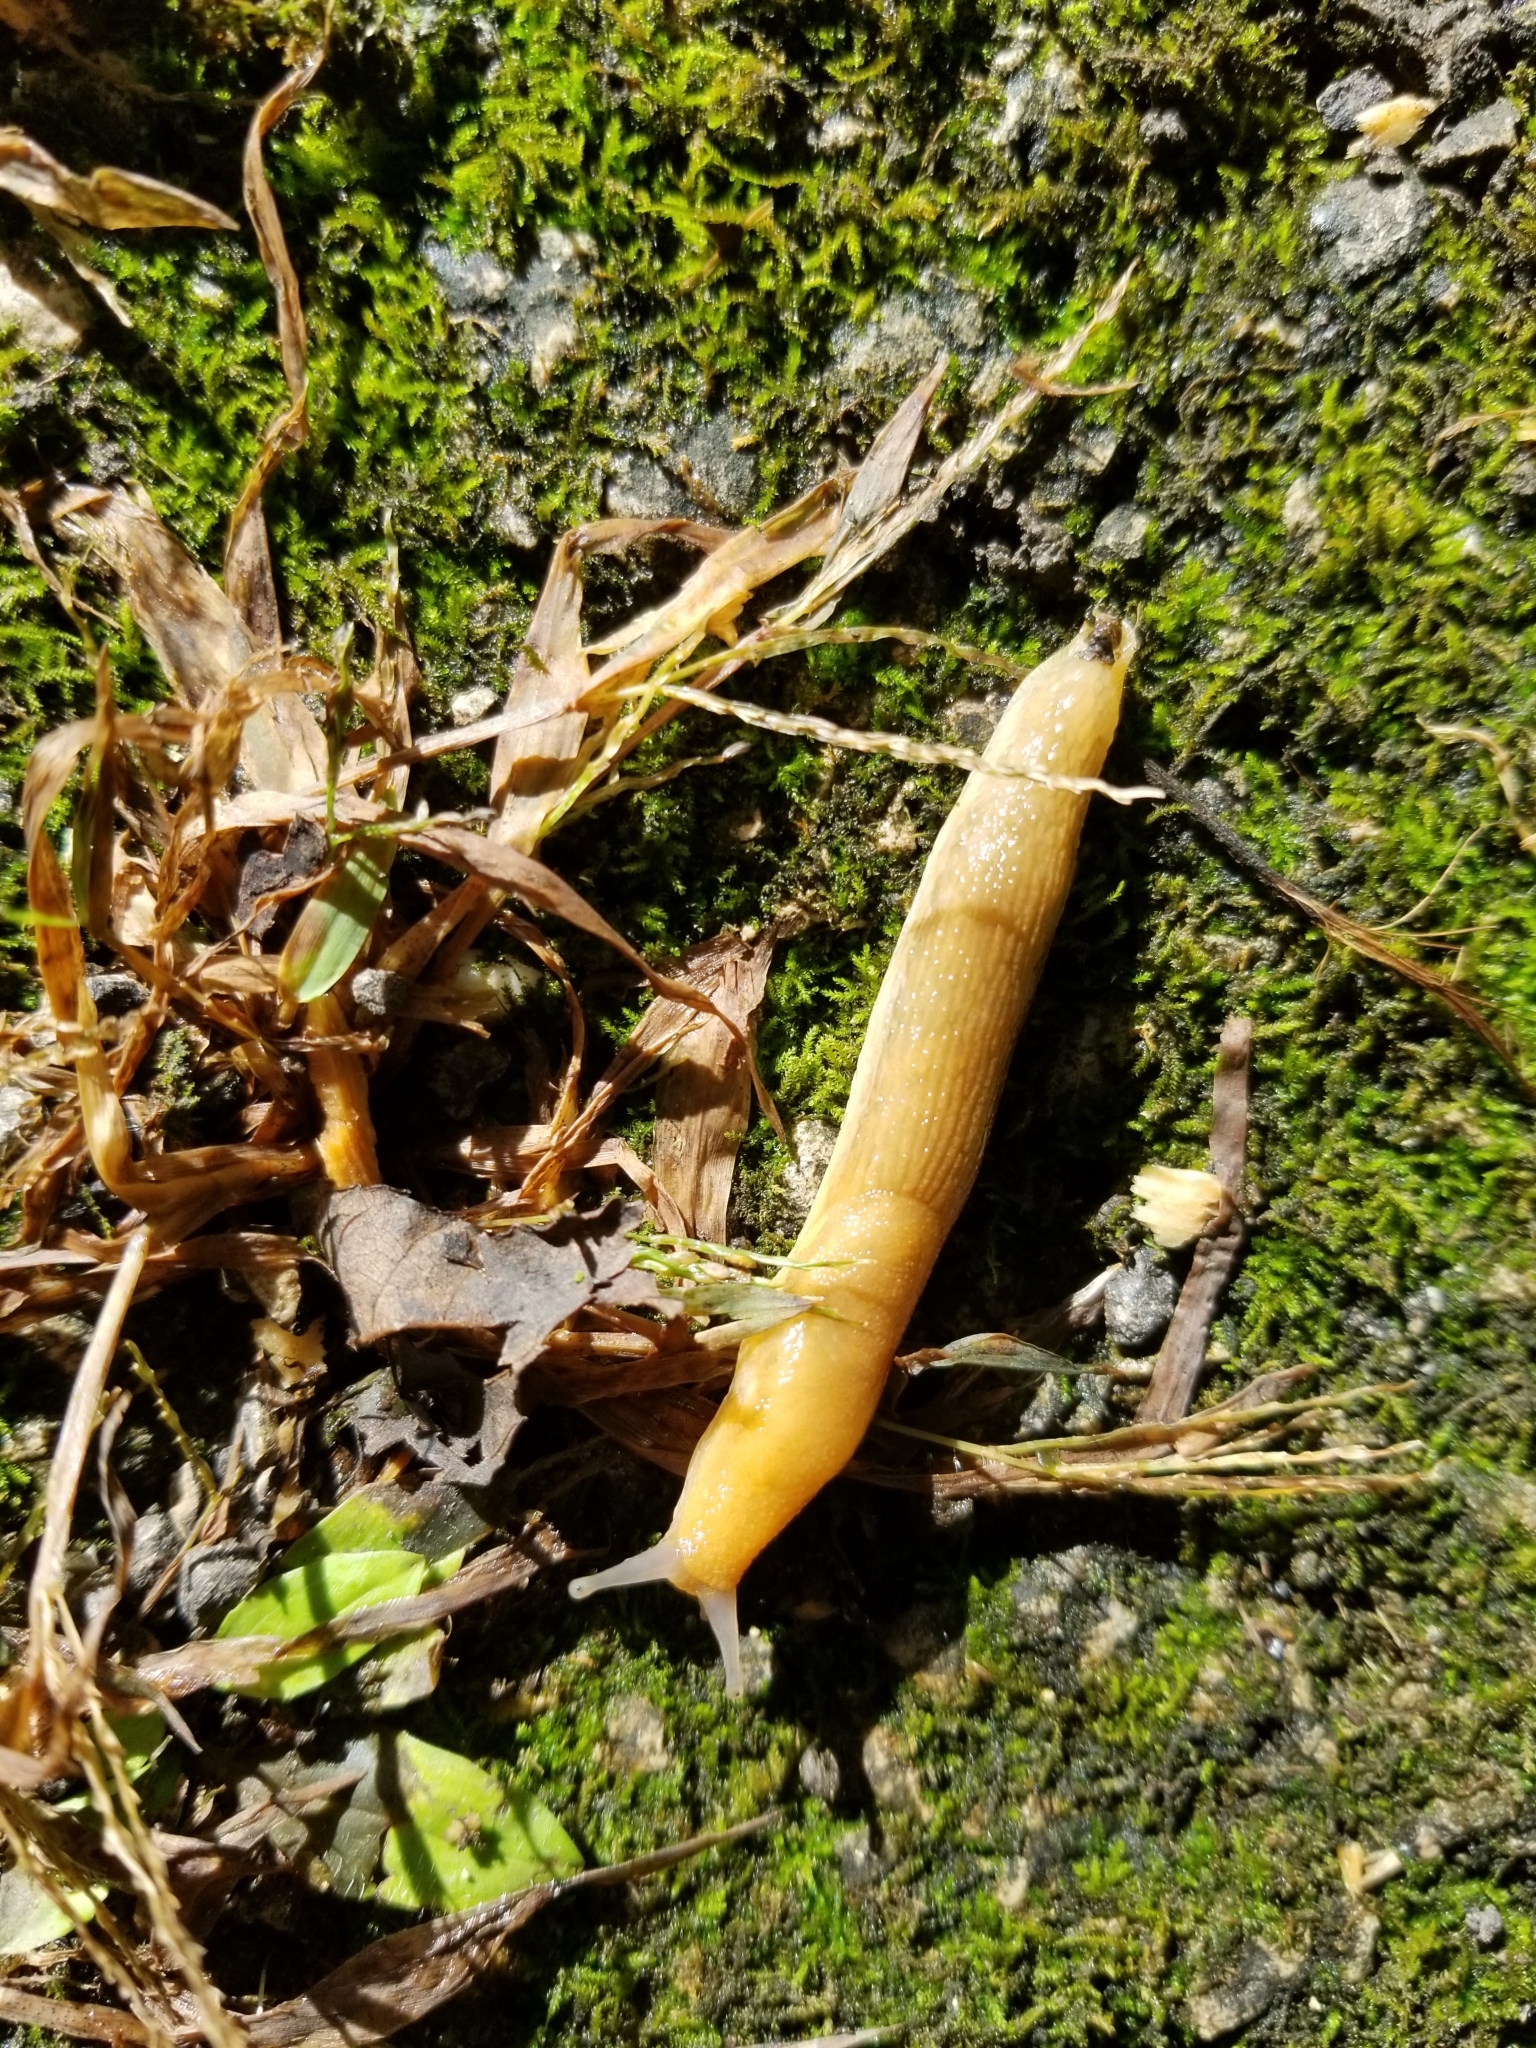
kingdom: Animalia
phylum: Mollusca
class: Gastropoda
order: Stylommatophora
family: Arionidae
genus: Arion
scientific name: Arion subfuscus
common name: Dusky arion
